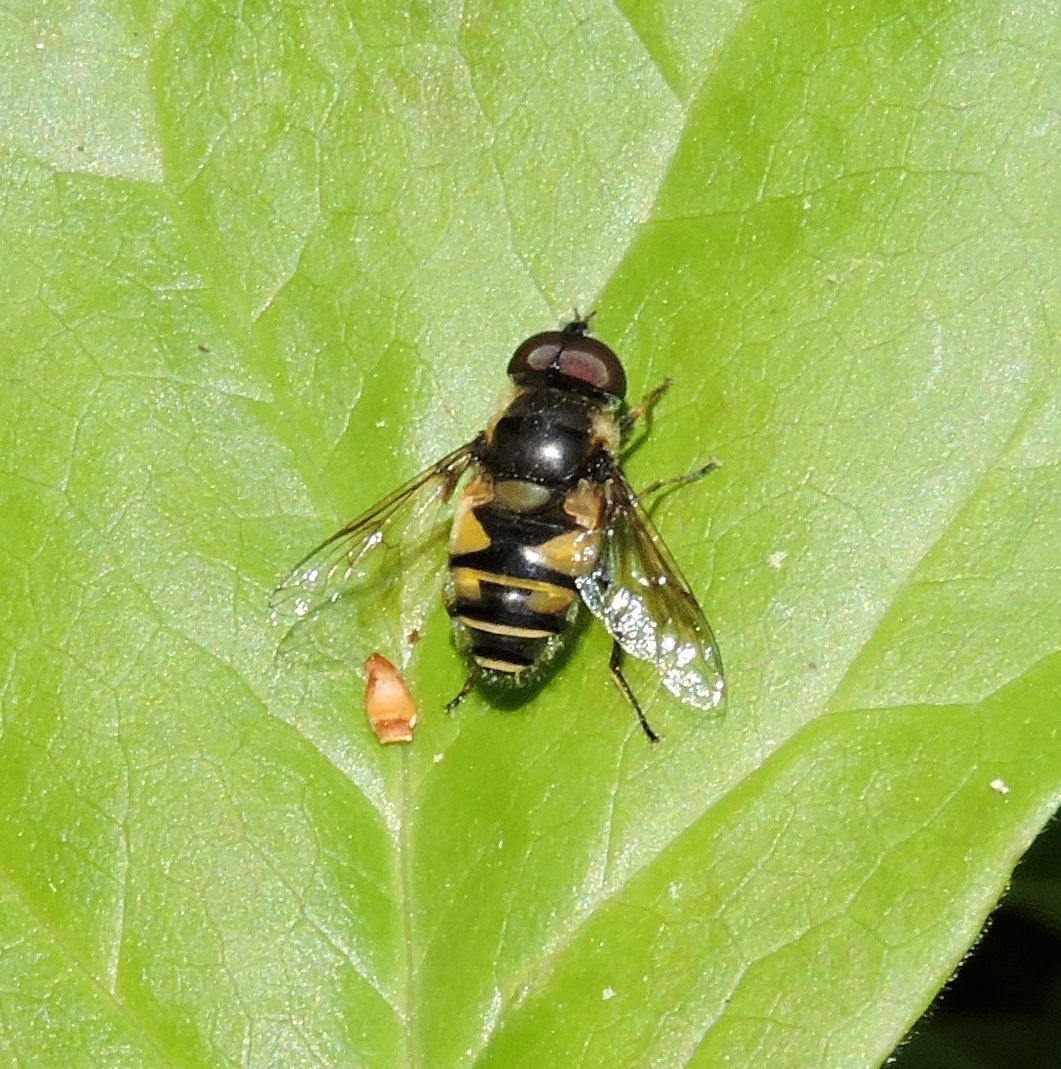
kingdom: Animalia
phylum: Arthropoda
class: Insecta
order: Diptera
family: Syrphidae
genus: Eristalis
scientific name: Eristalis transversa
